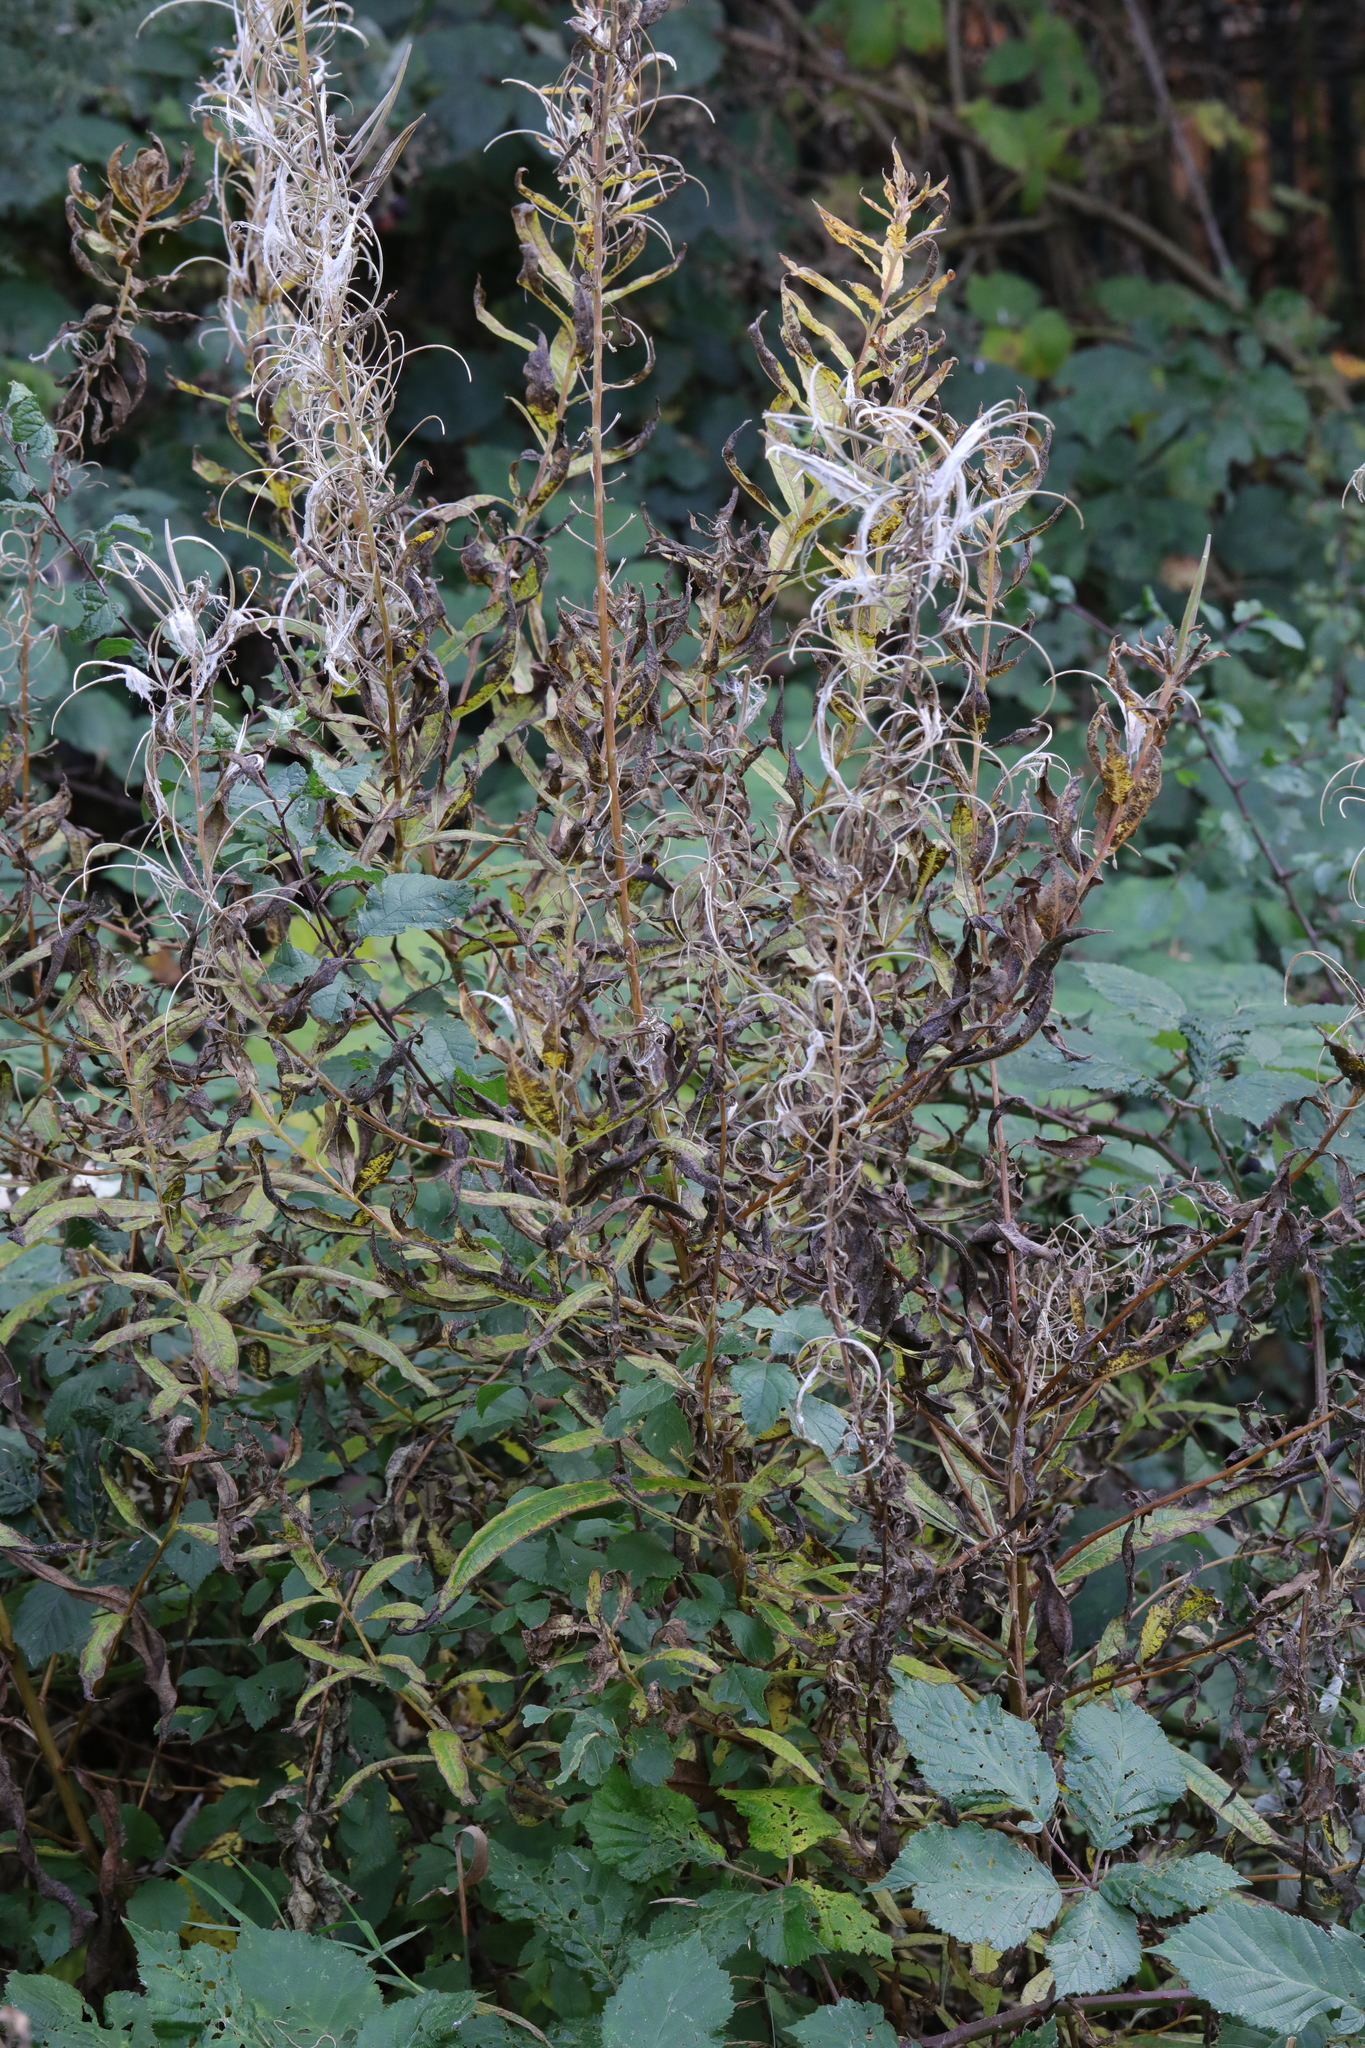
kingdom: Plantae
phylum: Tracheophyta
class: Magnoliopsida
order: Myrtales
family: Onagraceae
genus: Chamaenerion
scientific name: Chamaenerion angustifolium
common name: Fireweed
